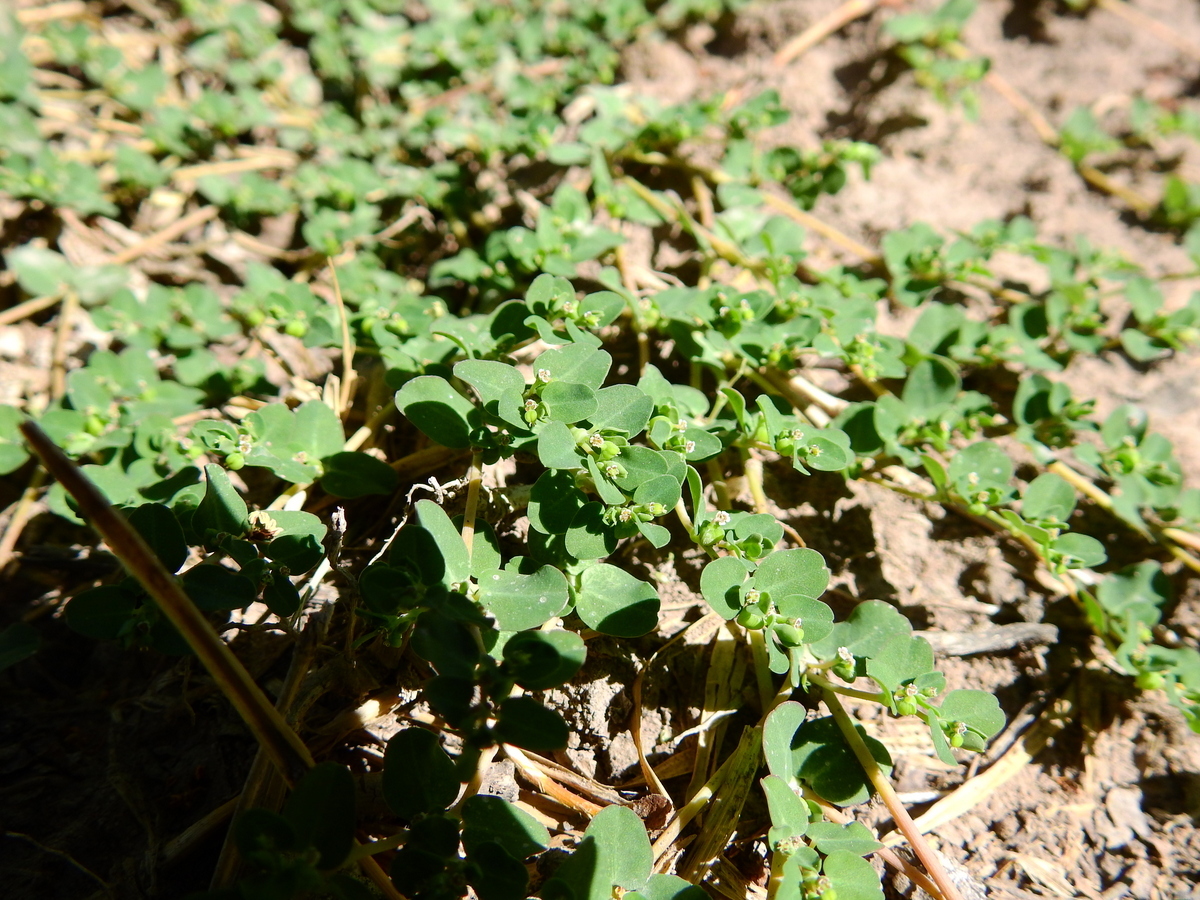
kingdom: Plantae
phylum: Tracheophyta
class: Magnoliopsida
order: Malpighiales
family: Euphorbiaceae
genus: Euphorbia
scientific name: Euphorbia serpens
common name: Matted sandmat
